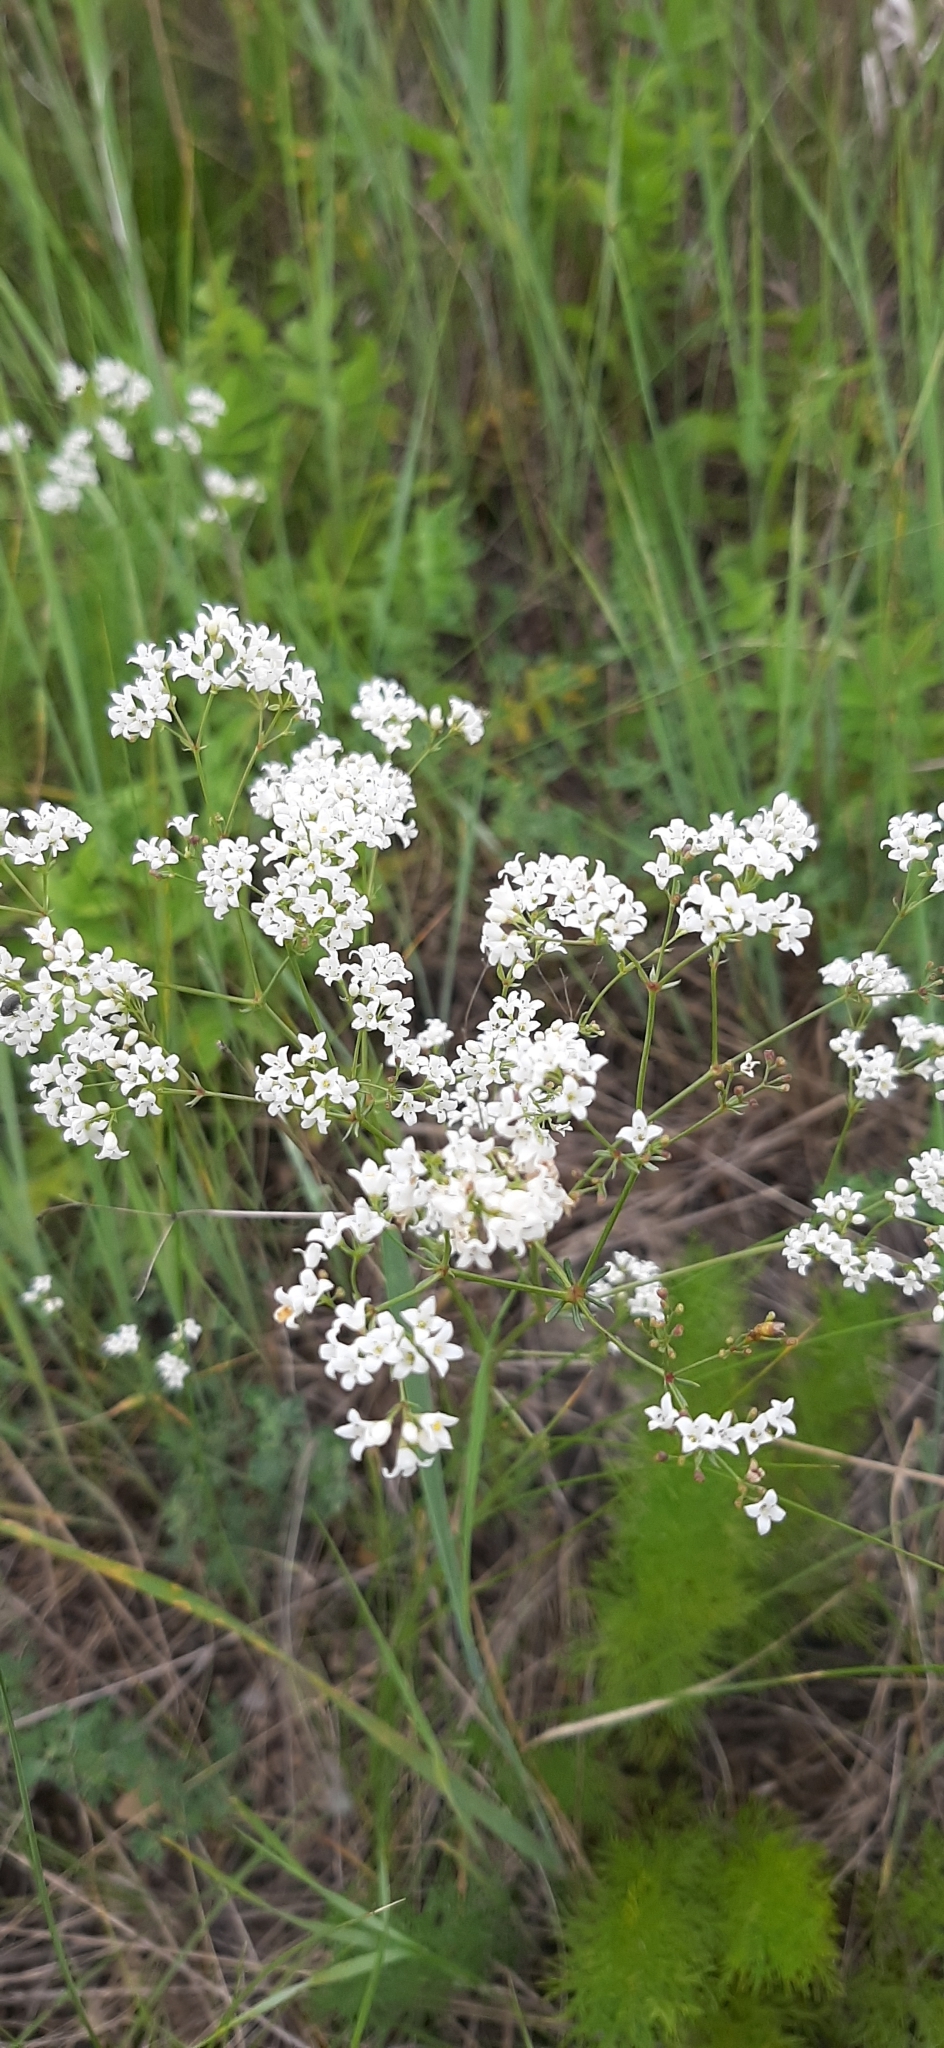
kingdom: Plantae
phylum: Tracheophyta
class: Magnoliopsida
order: Gentianales
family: Rubiaceae
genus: Galium
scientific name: Galium octonarium
